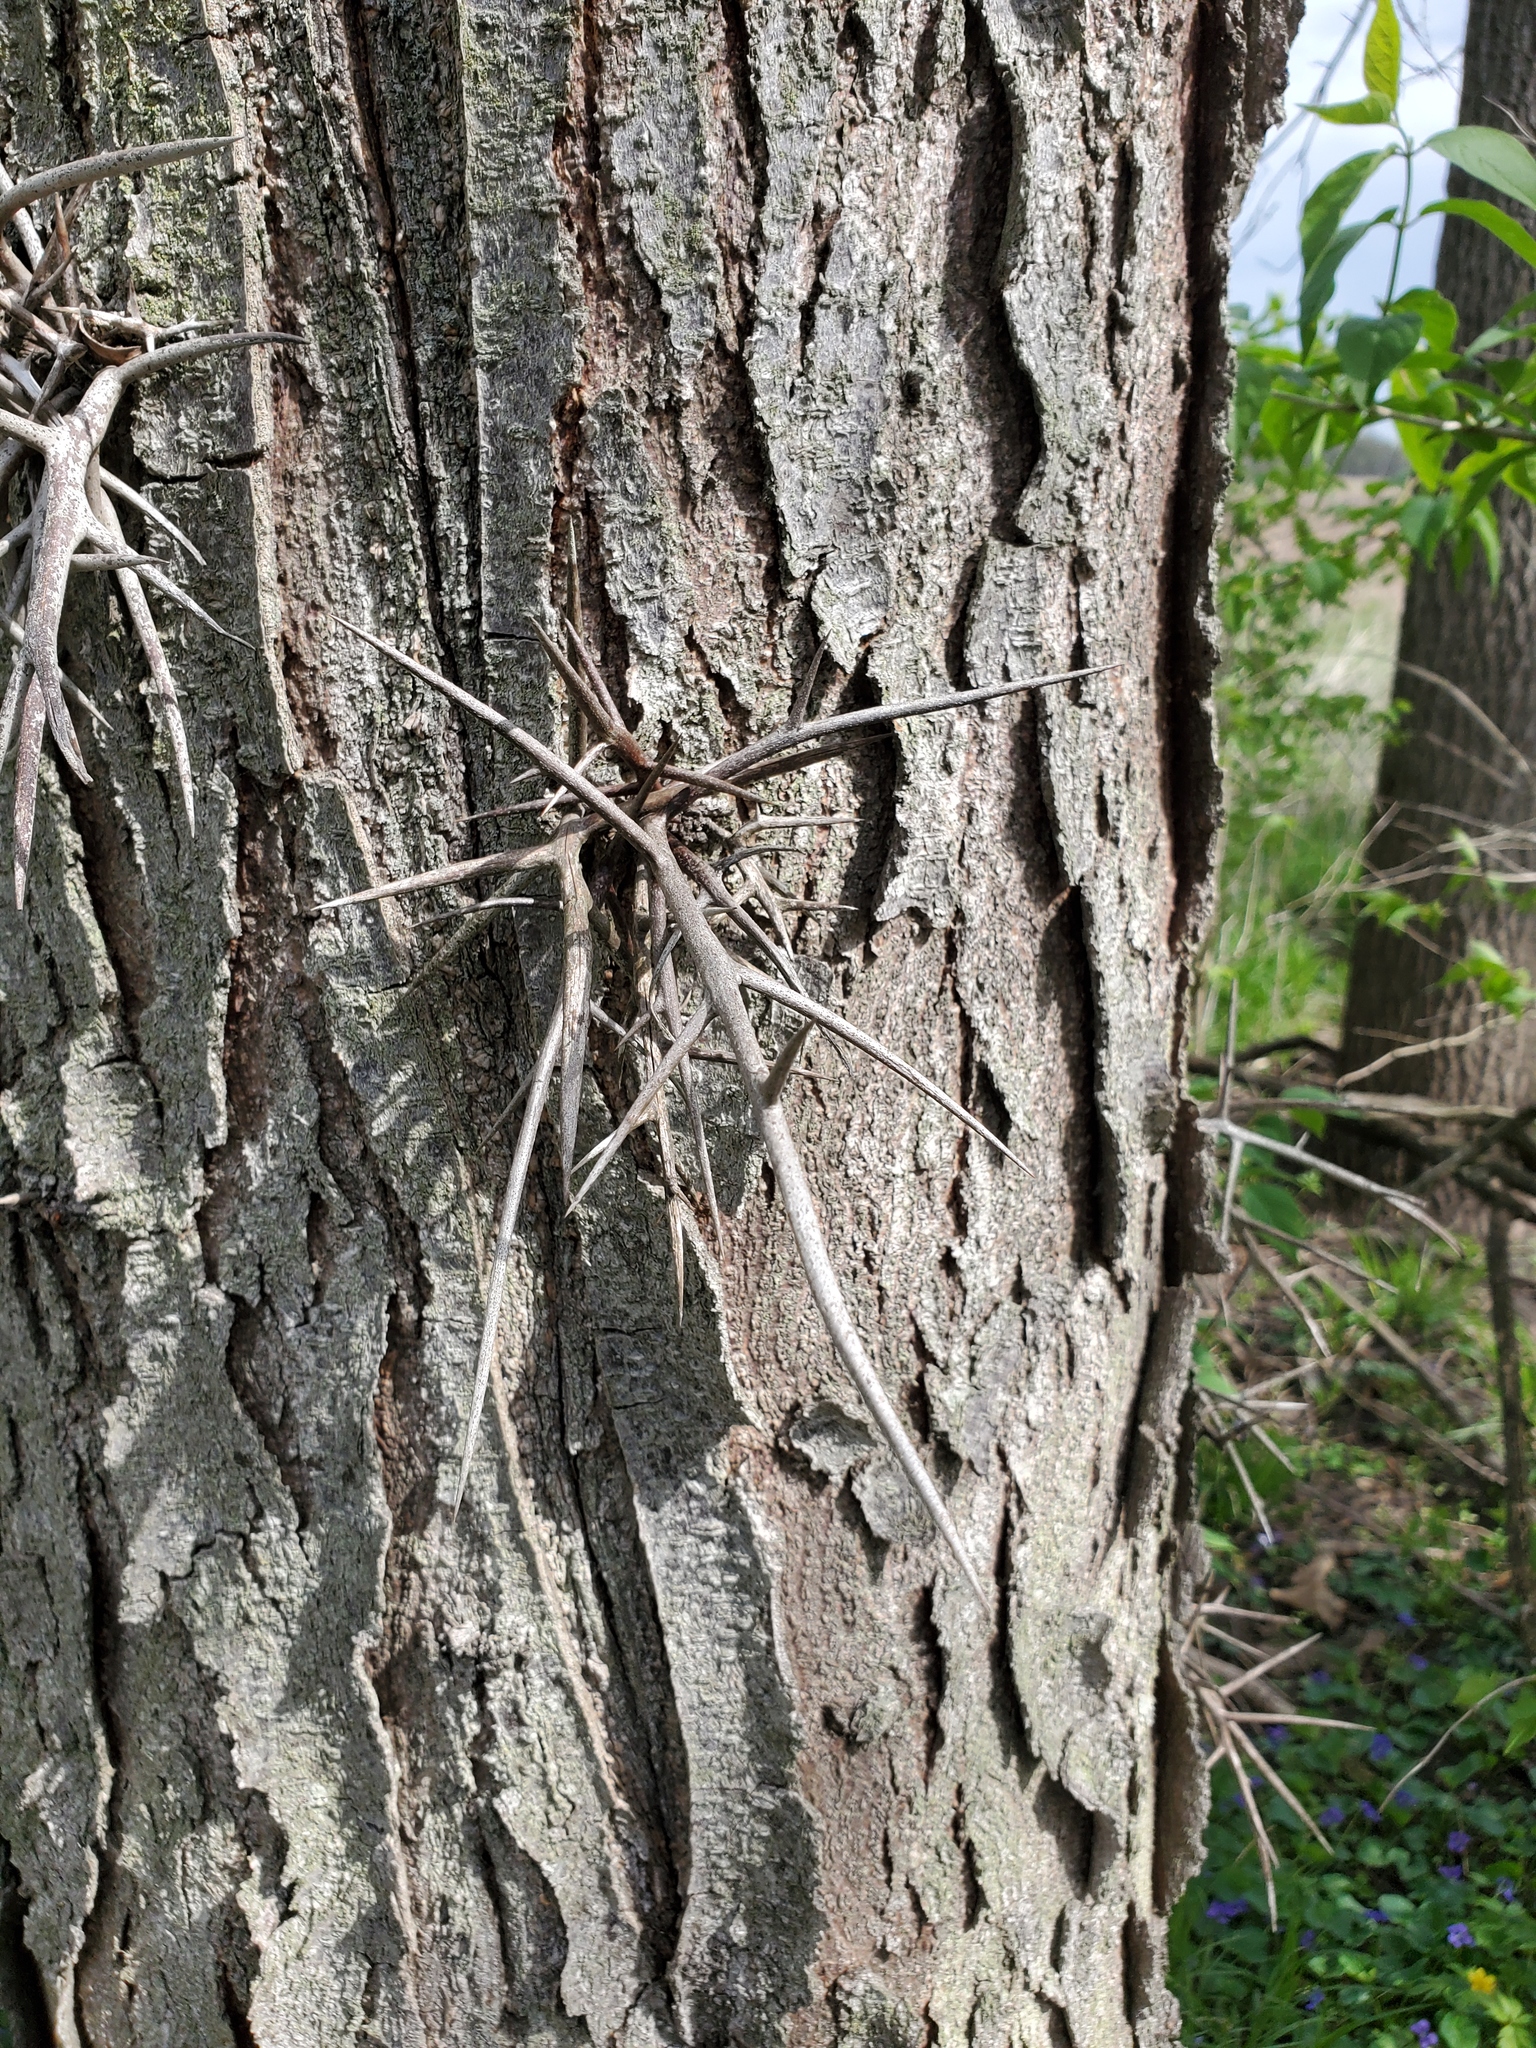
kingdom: Plantae
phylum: Tracheophyta
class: Magnoliopsida
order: Fabales
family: Fabaceae
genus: Gleditsia
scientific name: Gleditsia triacanthos
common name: Common honeylocust
